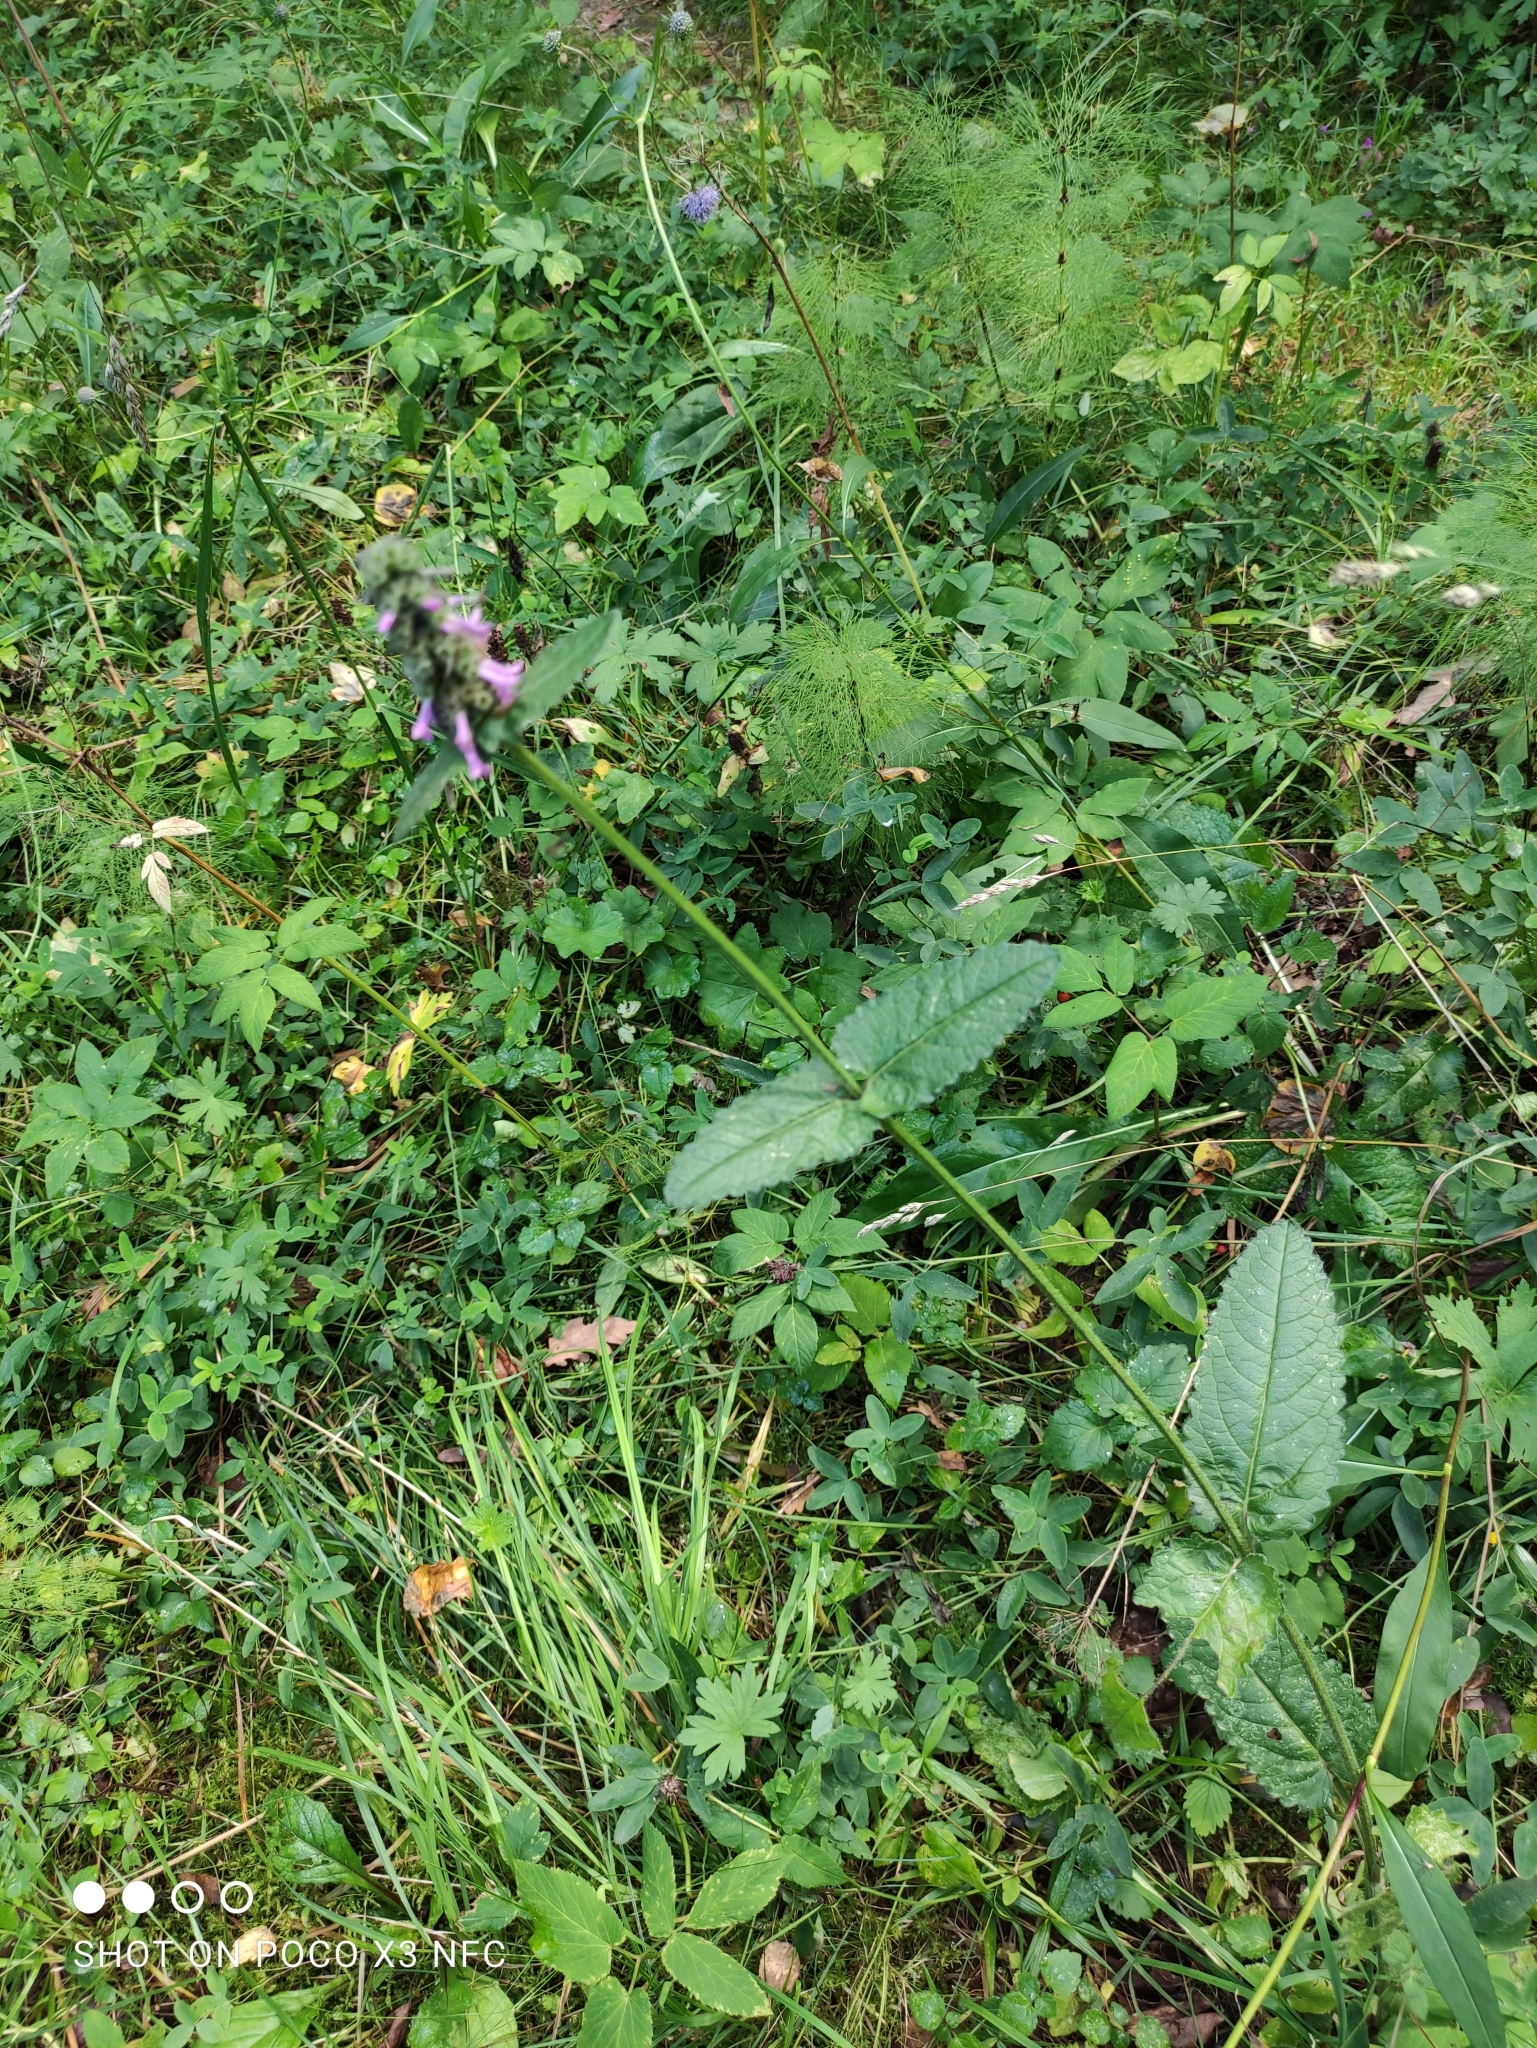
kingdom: Plantae
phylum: Tracheophyta
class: Magnoliopsida
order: Lamiales
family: Lamiaceae
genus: Betonica
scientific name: Betonica officinalis
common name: Bishop's-wort
